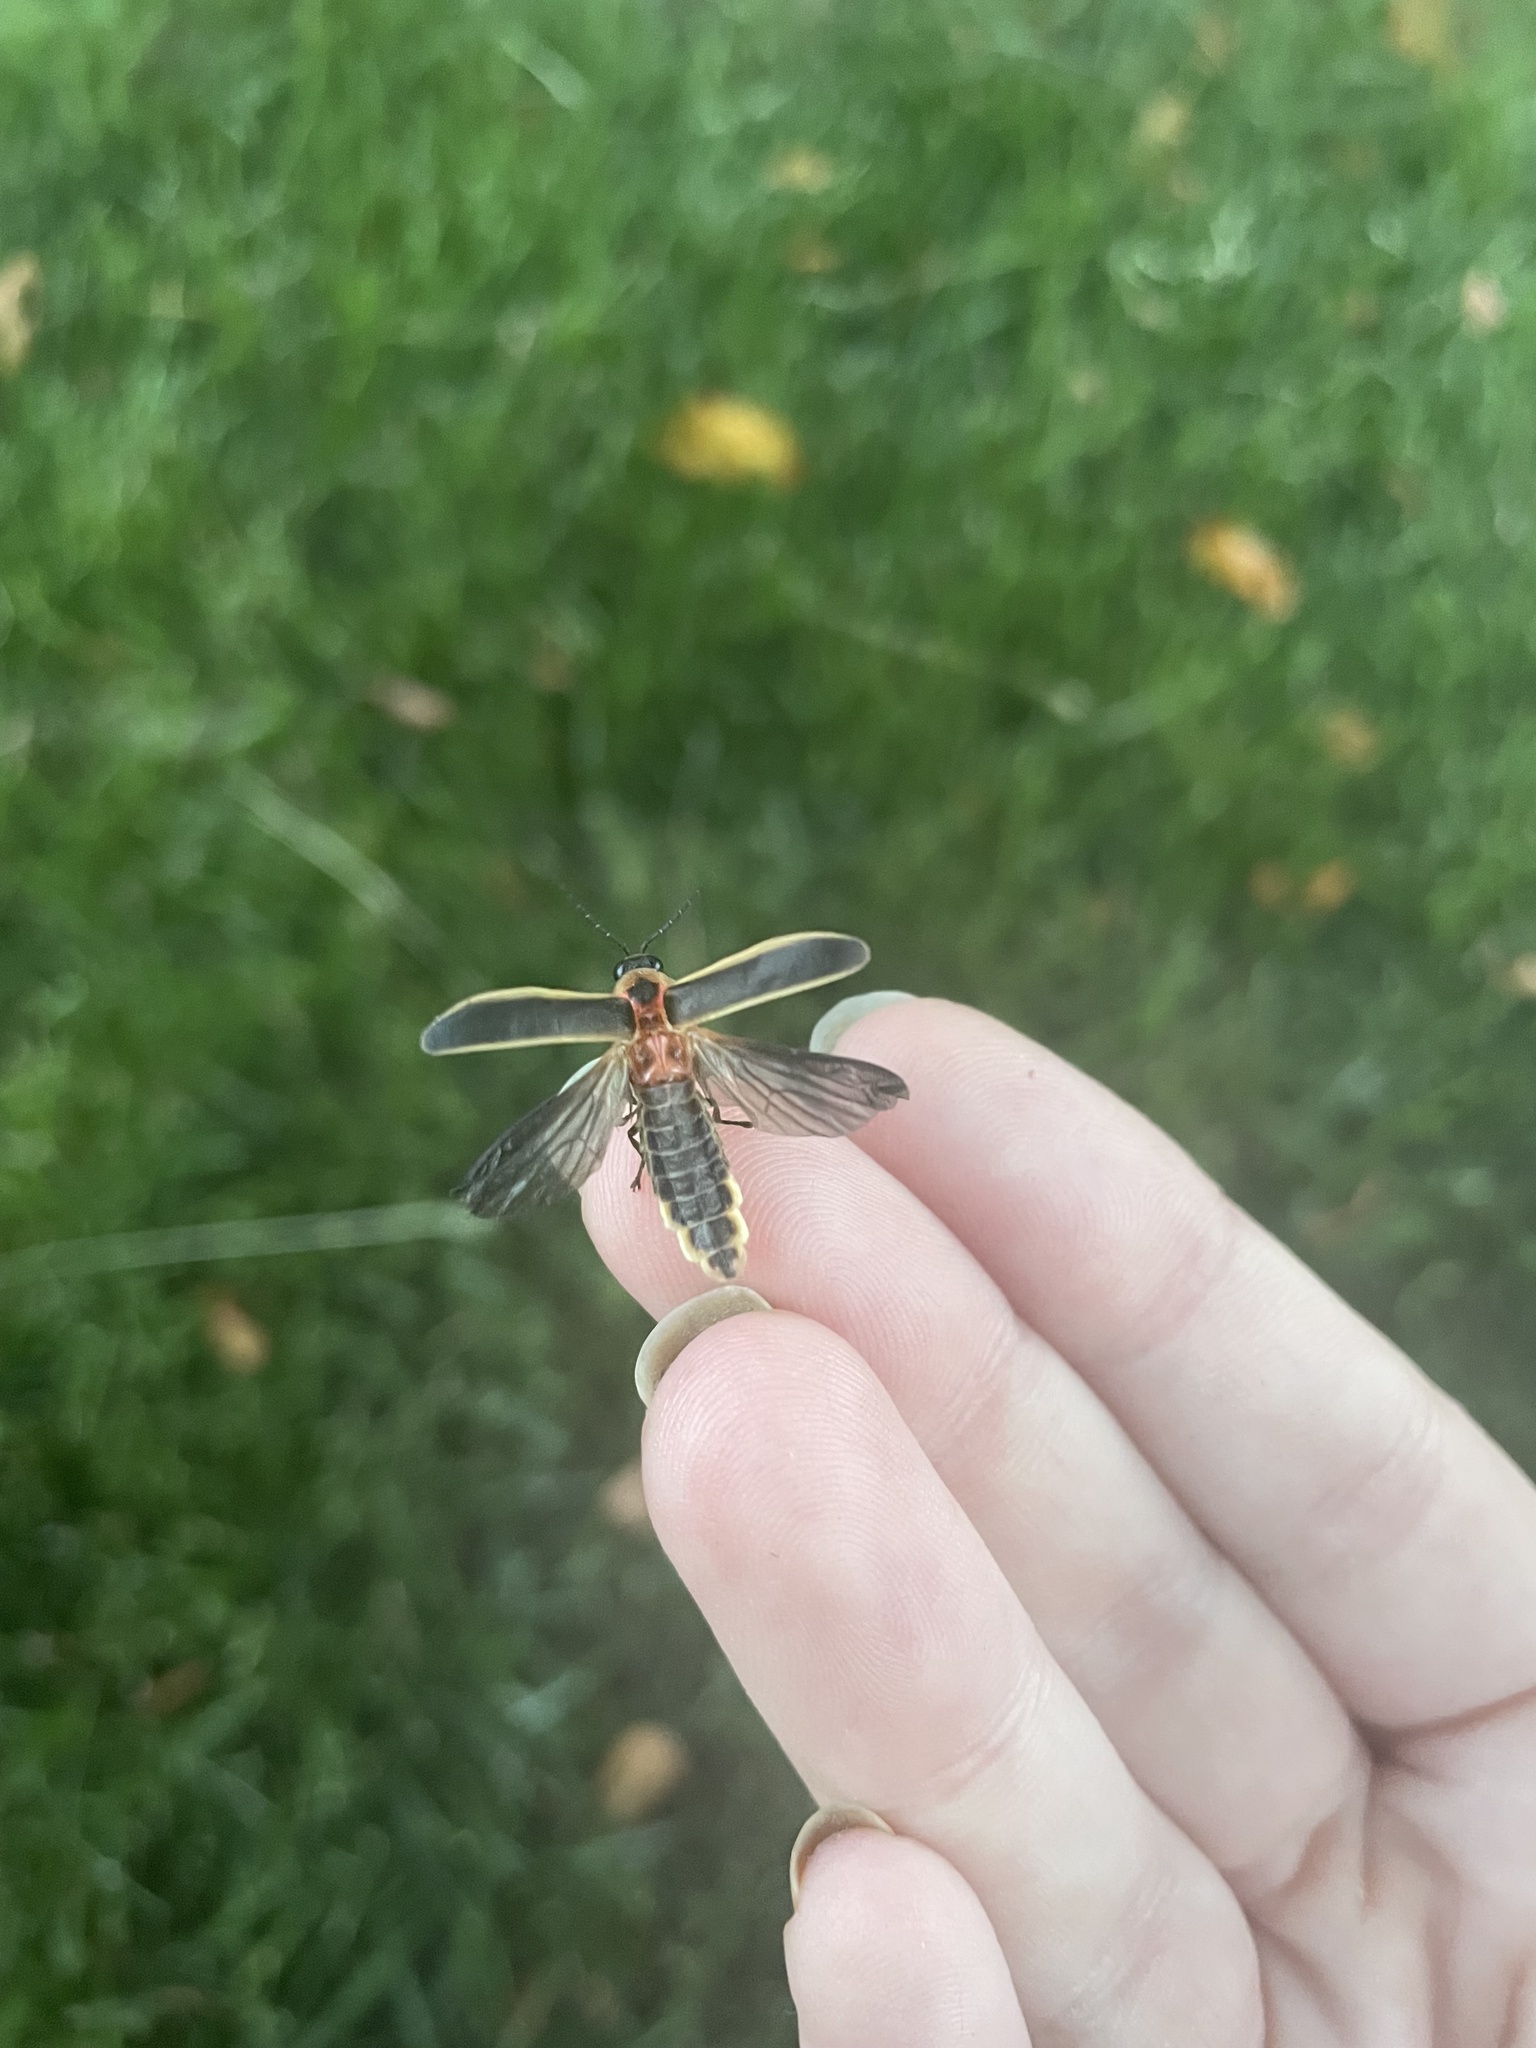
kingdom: Animalia
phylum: Arthropoda
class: Insecta
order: Coleoptera
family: Lampyridae
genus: Photinus
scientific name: Photinus pyralis
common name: Big dipper firefly
